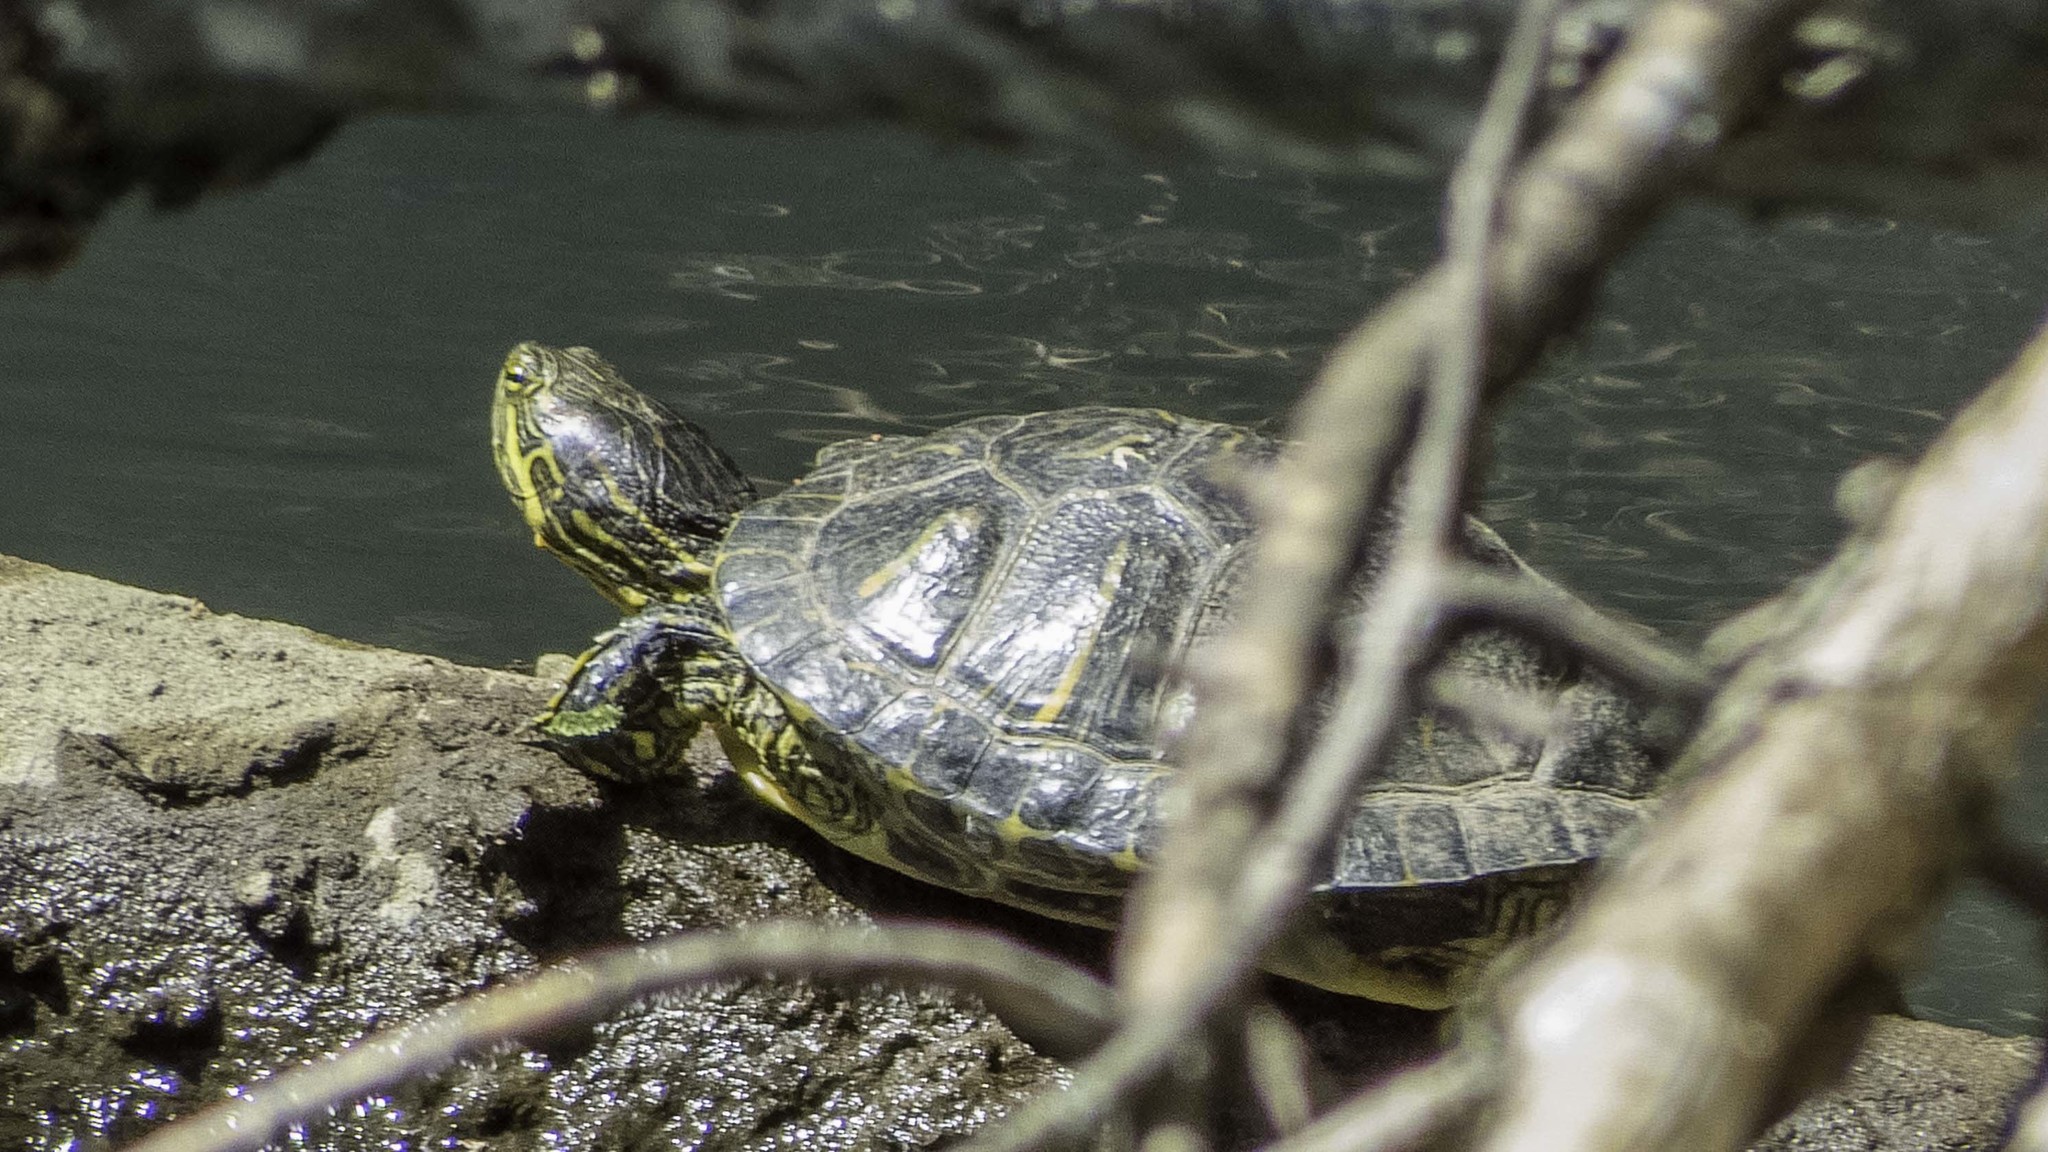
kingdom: Animalia
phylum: Chordata
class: Testudines
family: Emydidae
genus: Trachemys
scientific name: Trachemys scripta
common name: Slider
